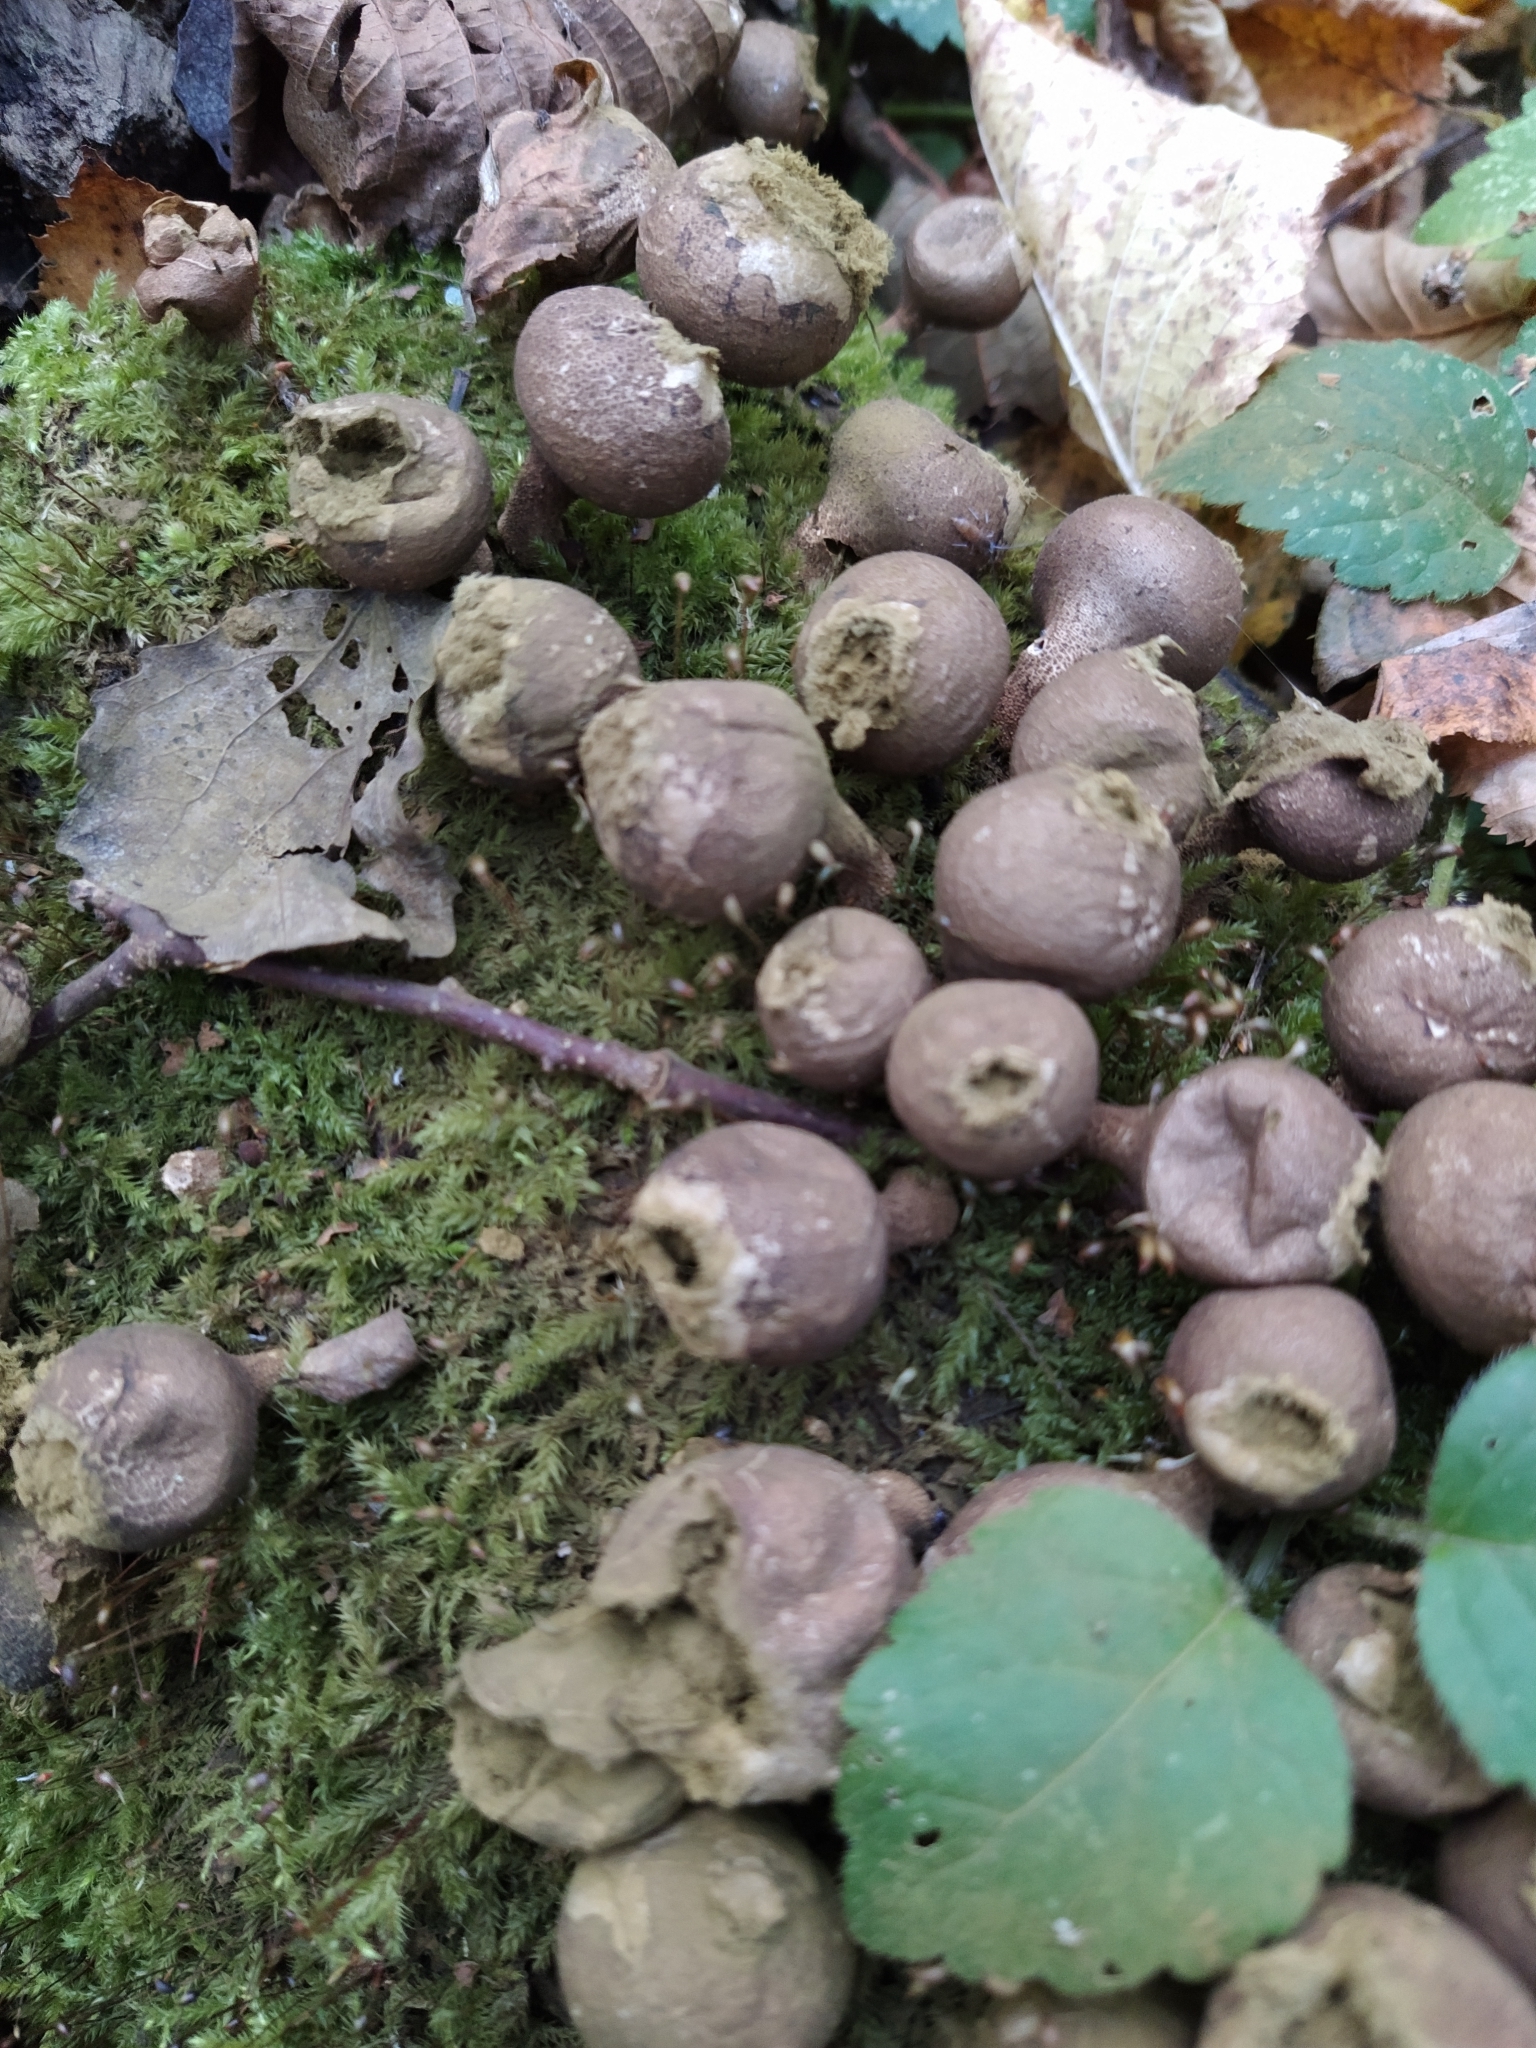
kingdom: Fungi
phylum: Basidiomycota
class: Agaricomycetes
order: Agaricales
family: Lycoperdaceae
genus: Apioperdon
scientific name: Apioperdon pyriforme
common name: Pear-shaped puffball
